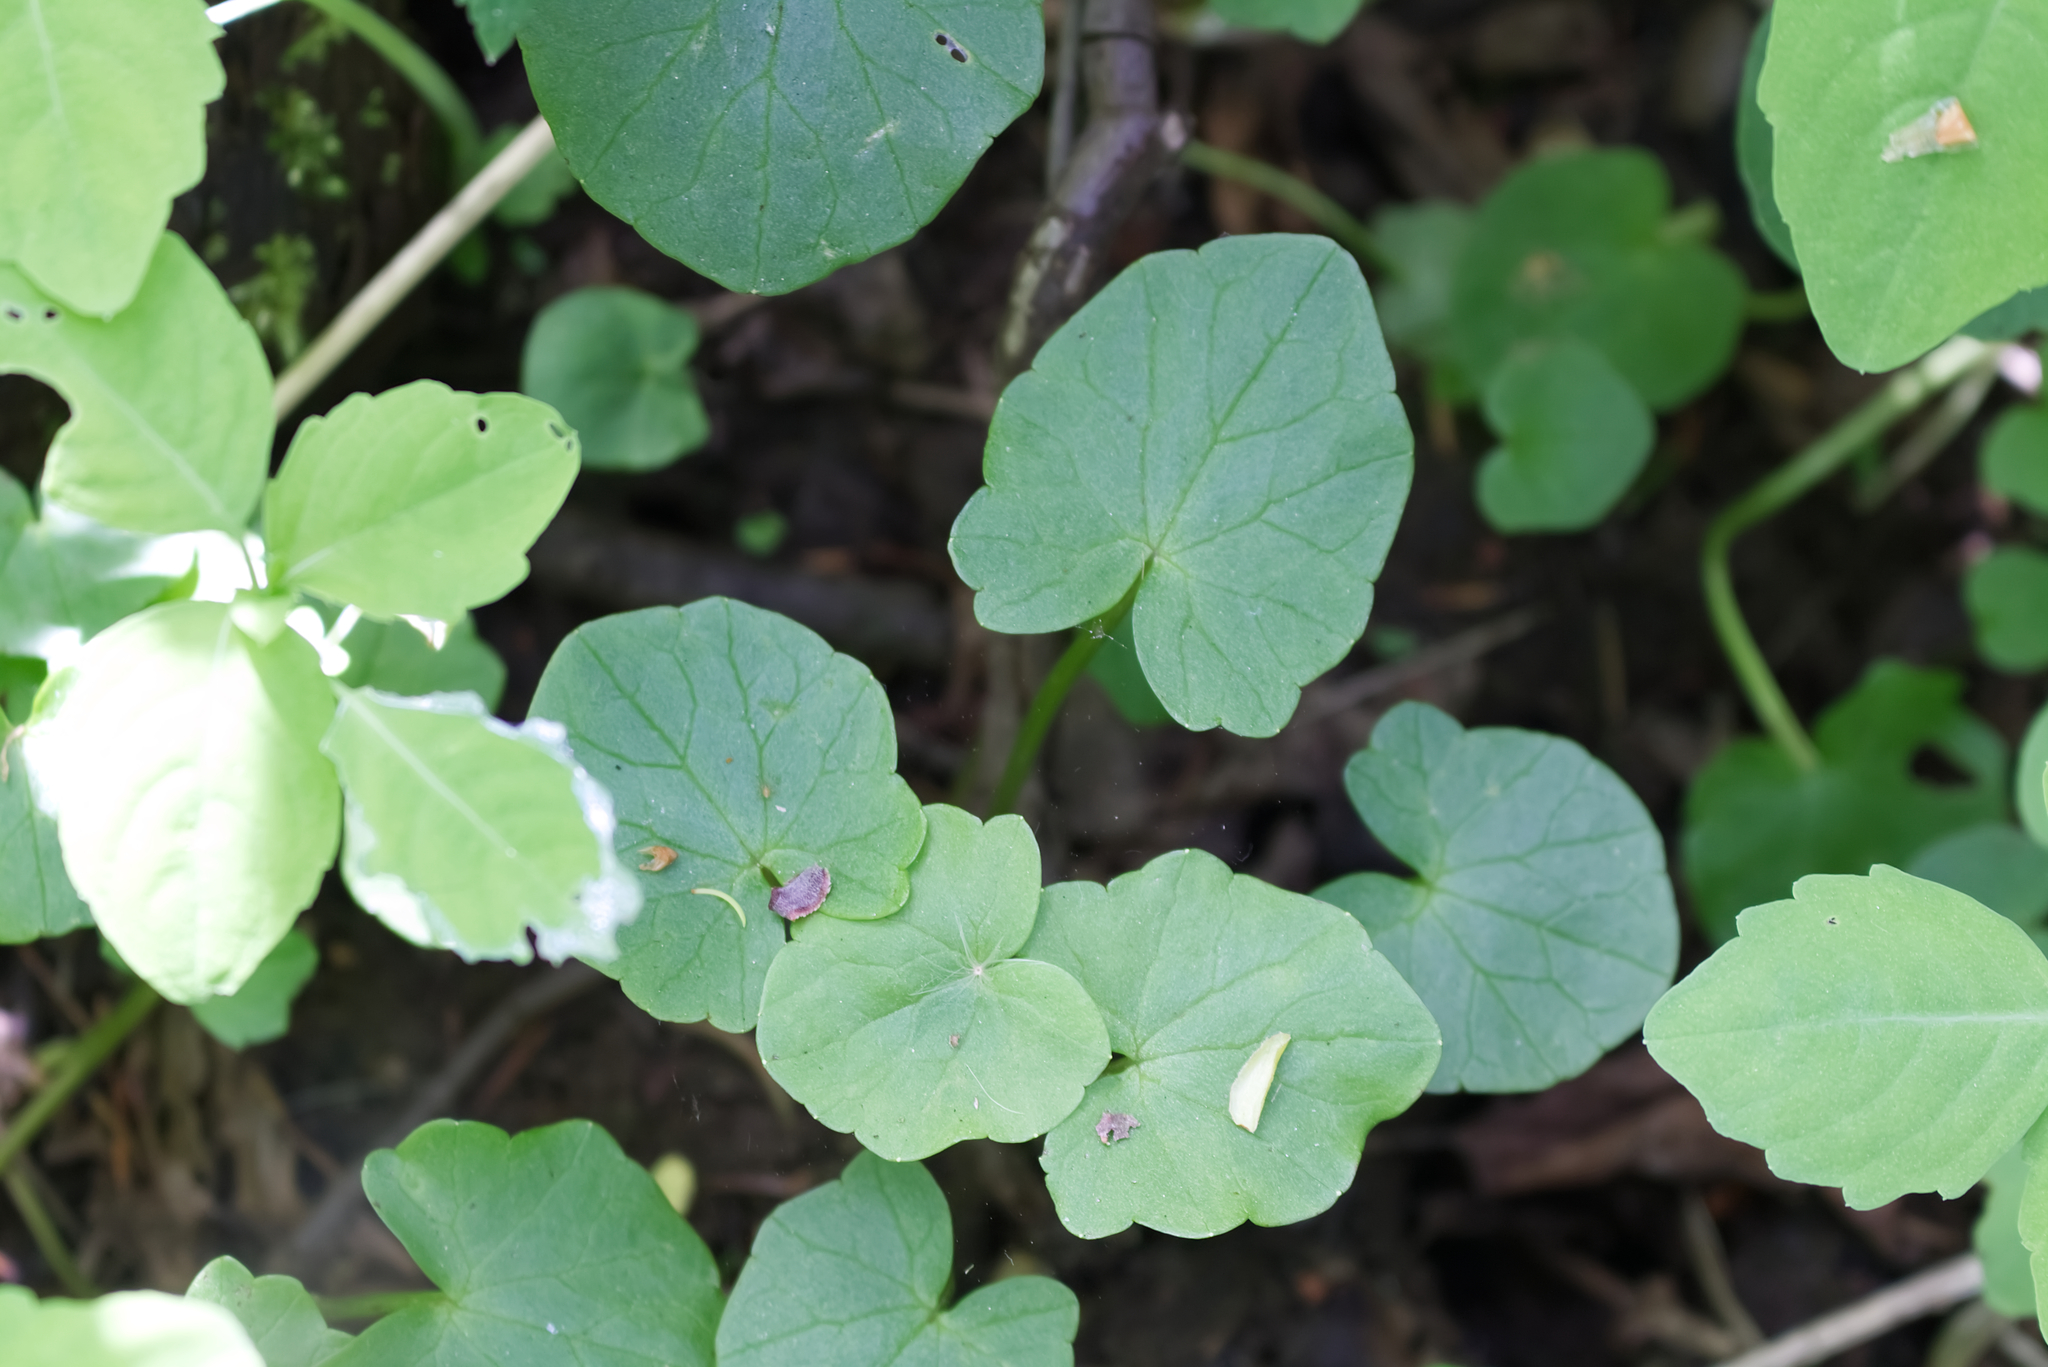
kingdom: Plantae
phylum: Tracheophyta
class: Magnoliopsida
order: Ranunculales
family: Ranunculaceae
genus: Ficaria
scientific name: Ficaria verna
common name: Lesser celandine
